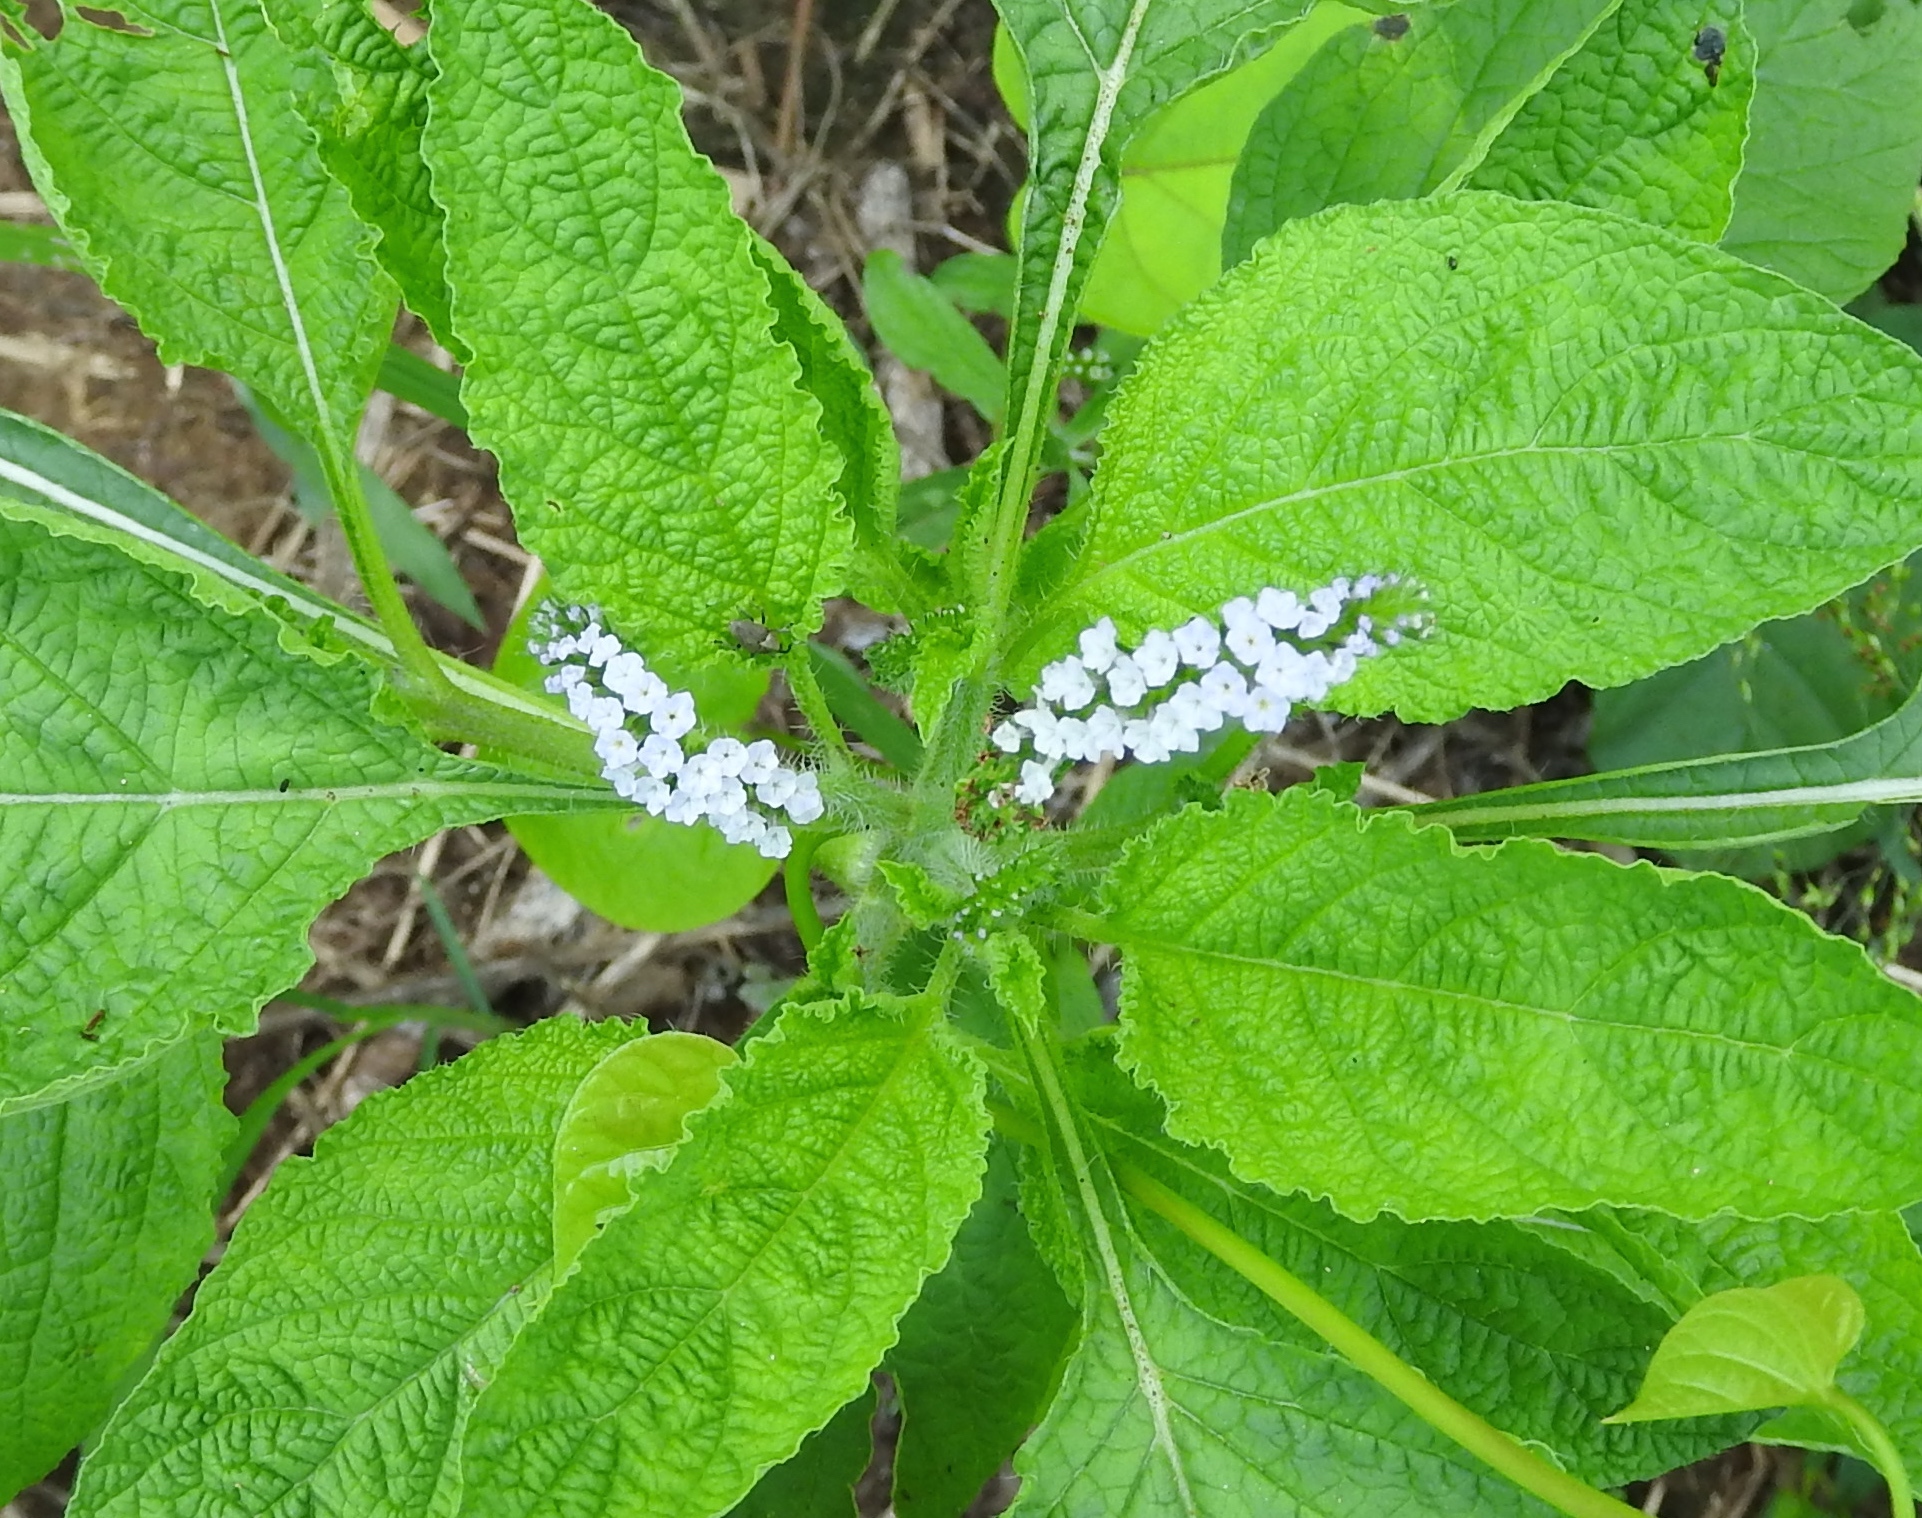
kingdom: Plantae
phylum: Tracheophyta
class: Magnoliopsida
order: Boraginales
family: Heliotropiaceae
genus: Heliotropium
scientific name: Heliotropium indicum
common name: Indian heliotrope
